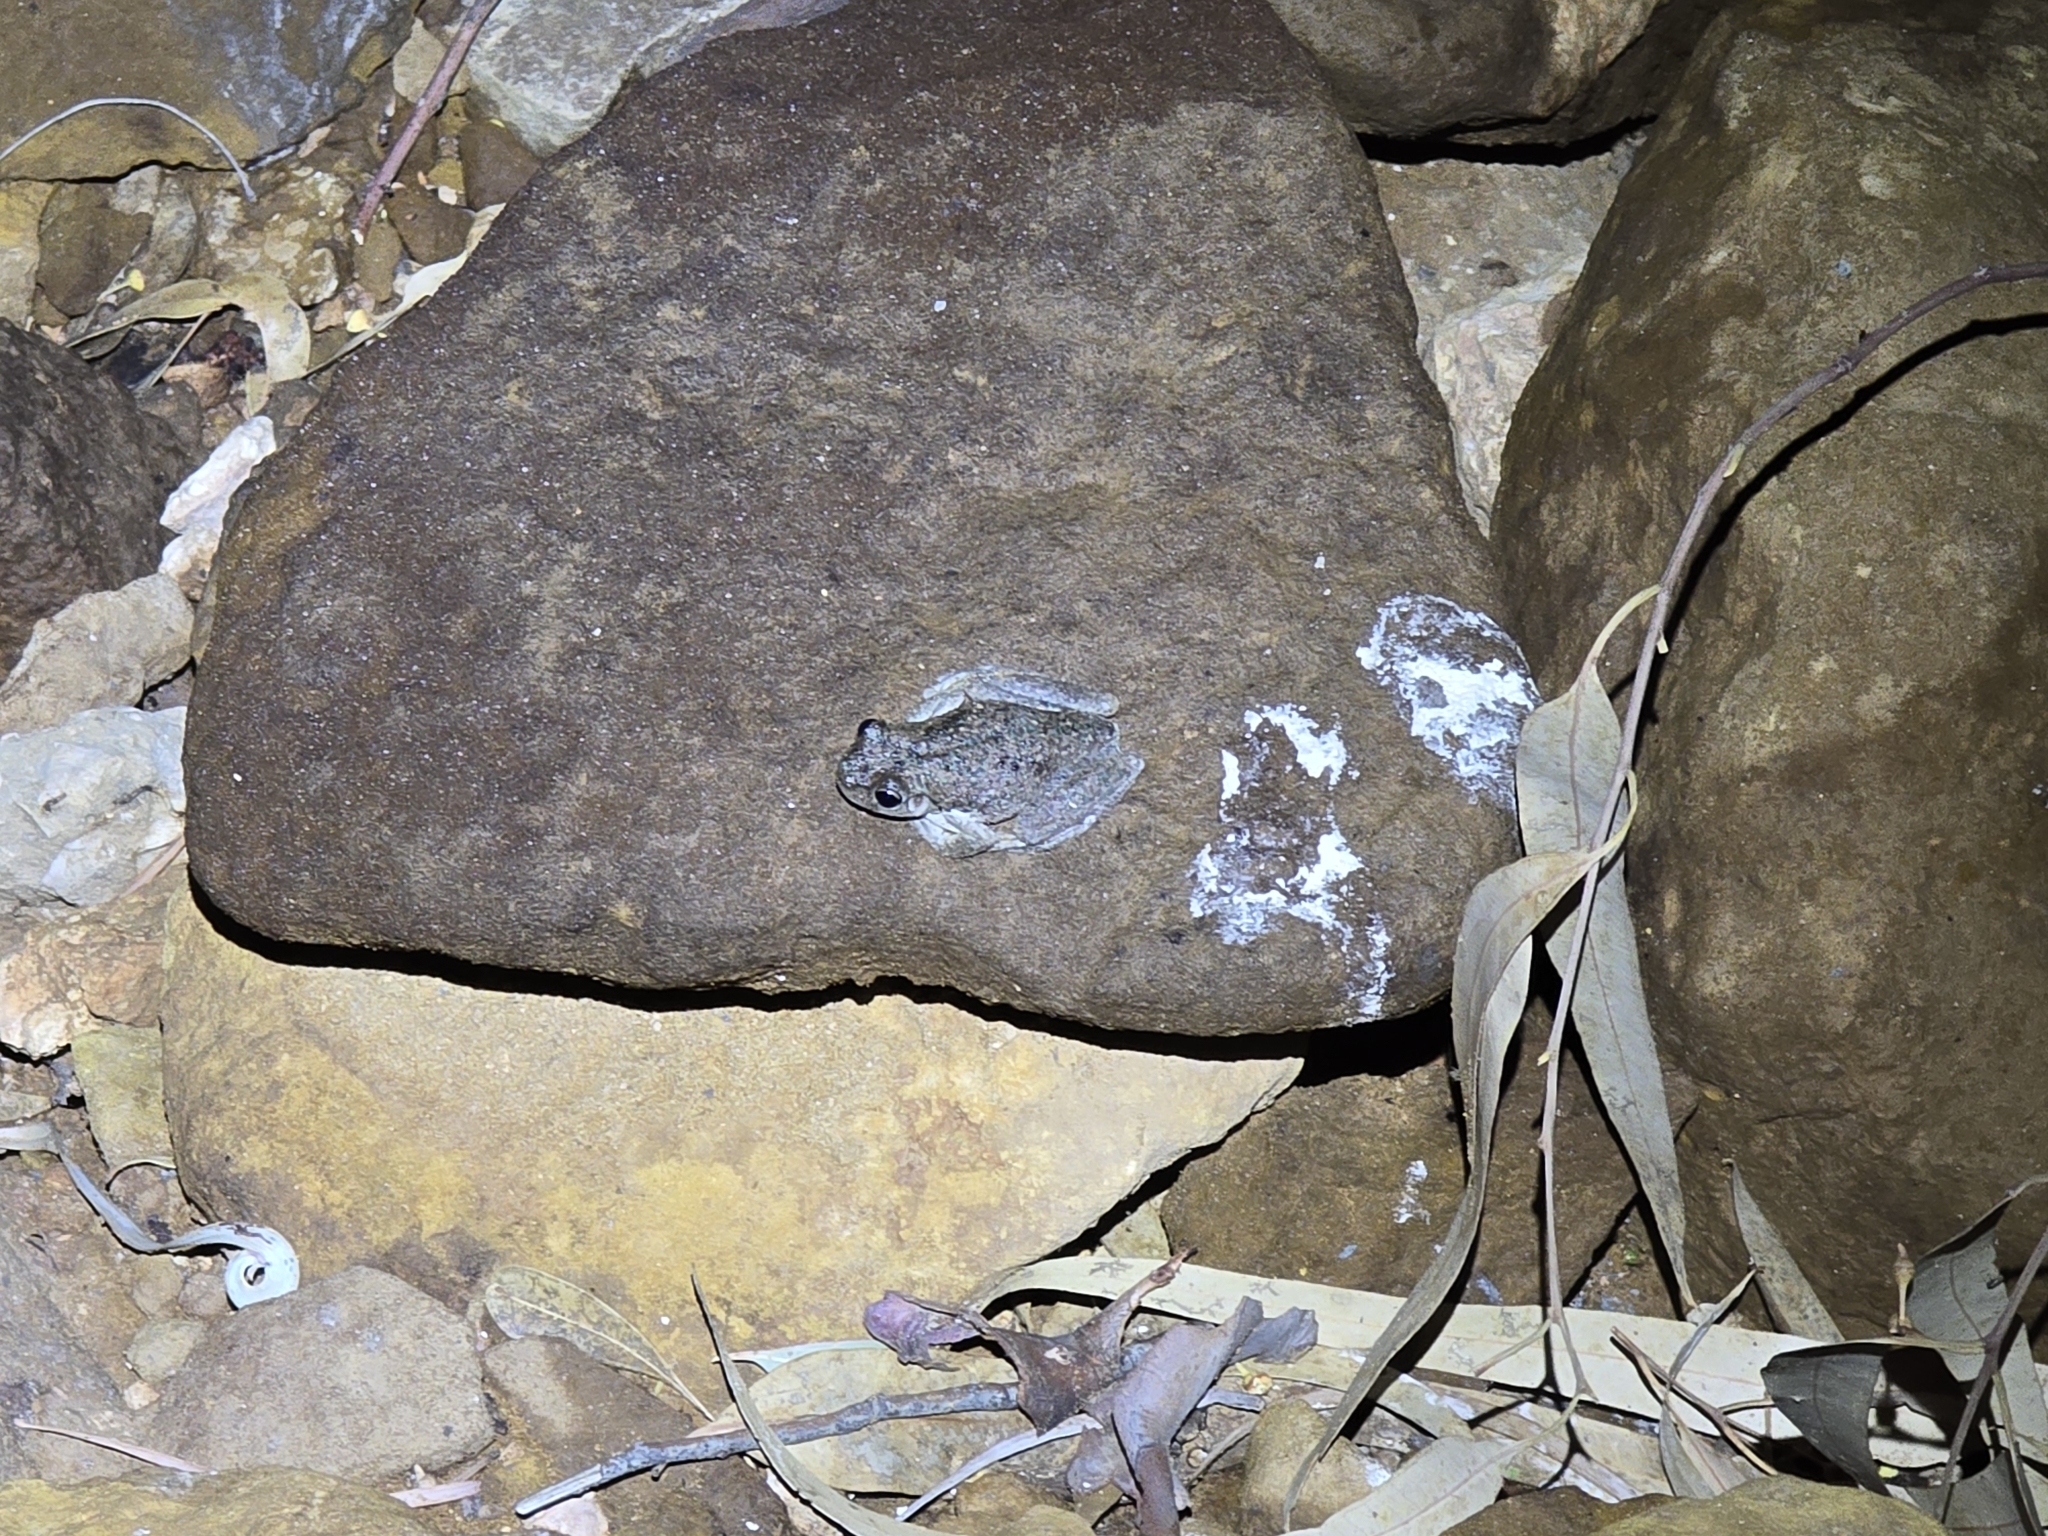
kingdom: Animalia
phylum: Chordata
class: Amphibia
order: Anura
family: Pelodryadidae
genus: Litoria
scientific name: Litoria peronii
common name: Emerald spotted treefrog
